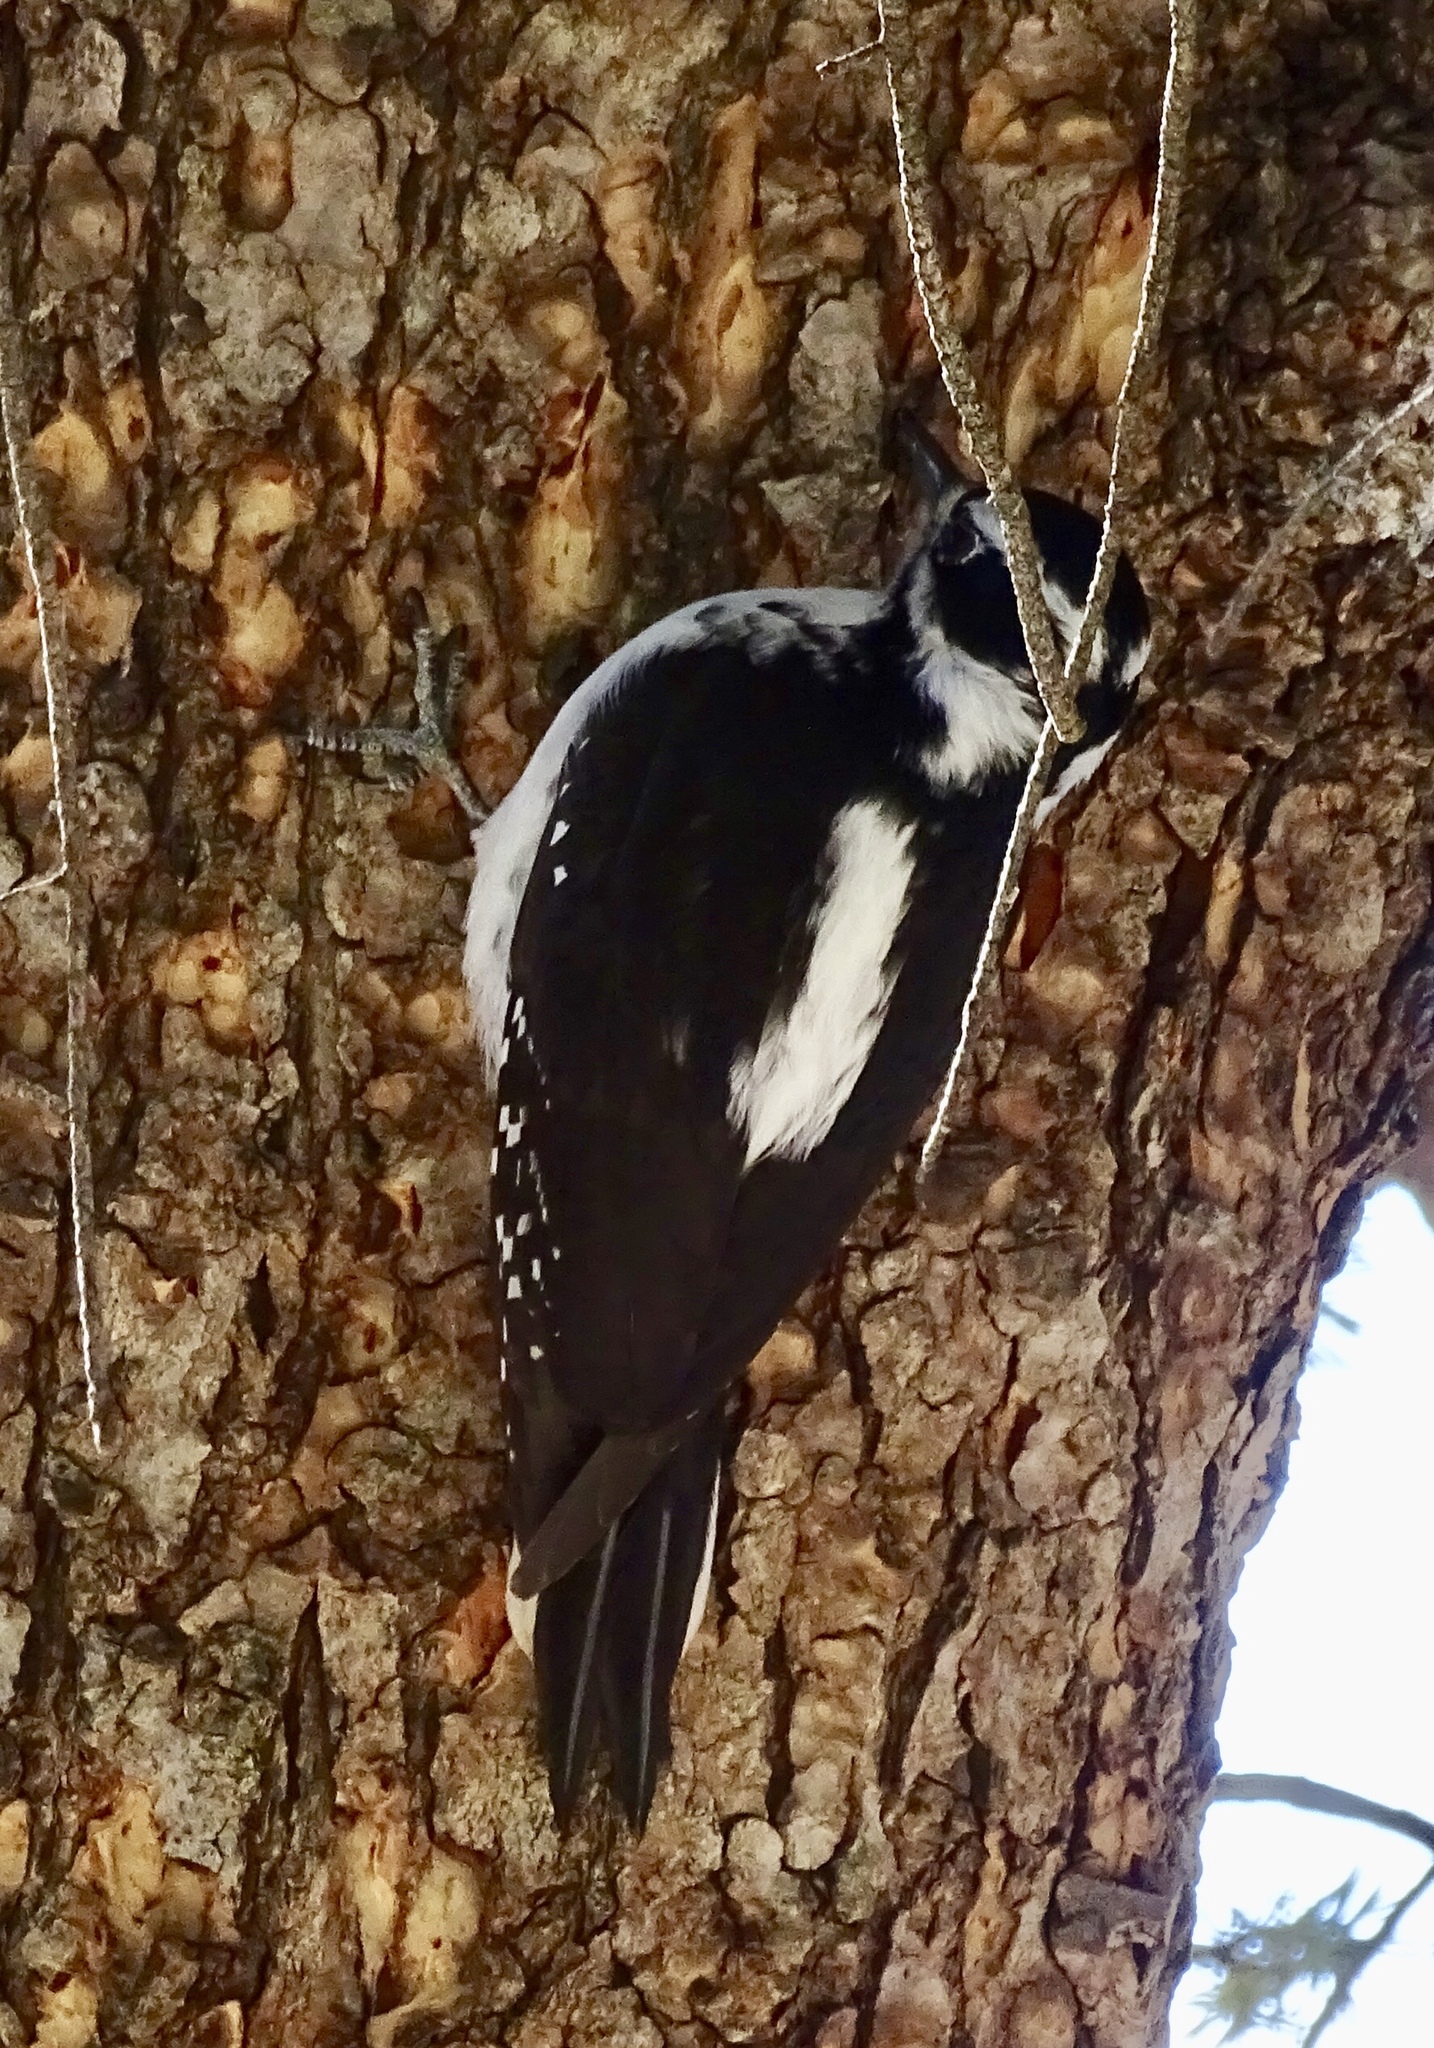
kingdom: Animalia
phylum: Chordata
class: Aves
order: Piciformes
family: Picidae
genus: Leuconotopicus
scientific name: Leuconotopicus villosus
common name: Hairy woodpecker
